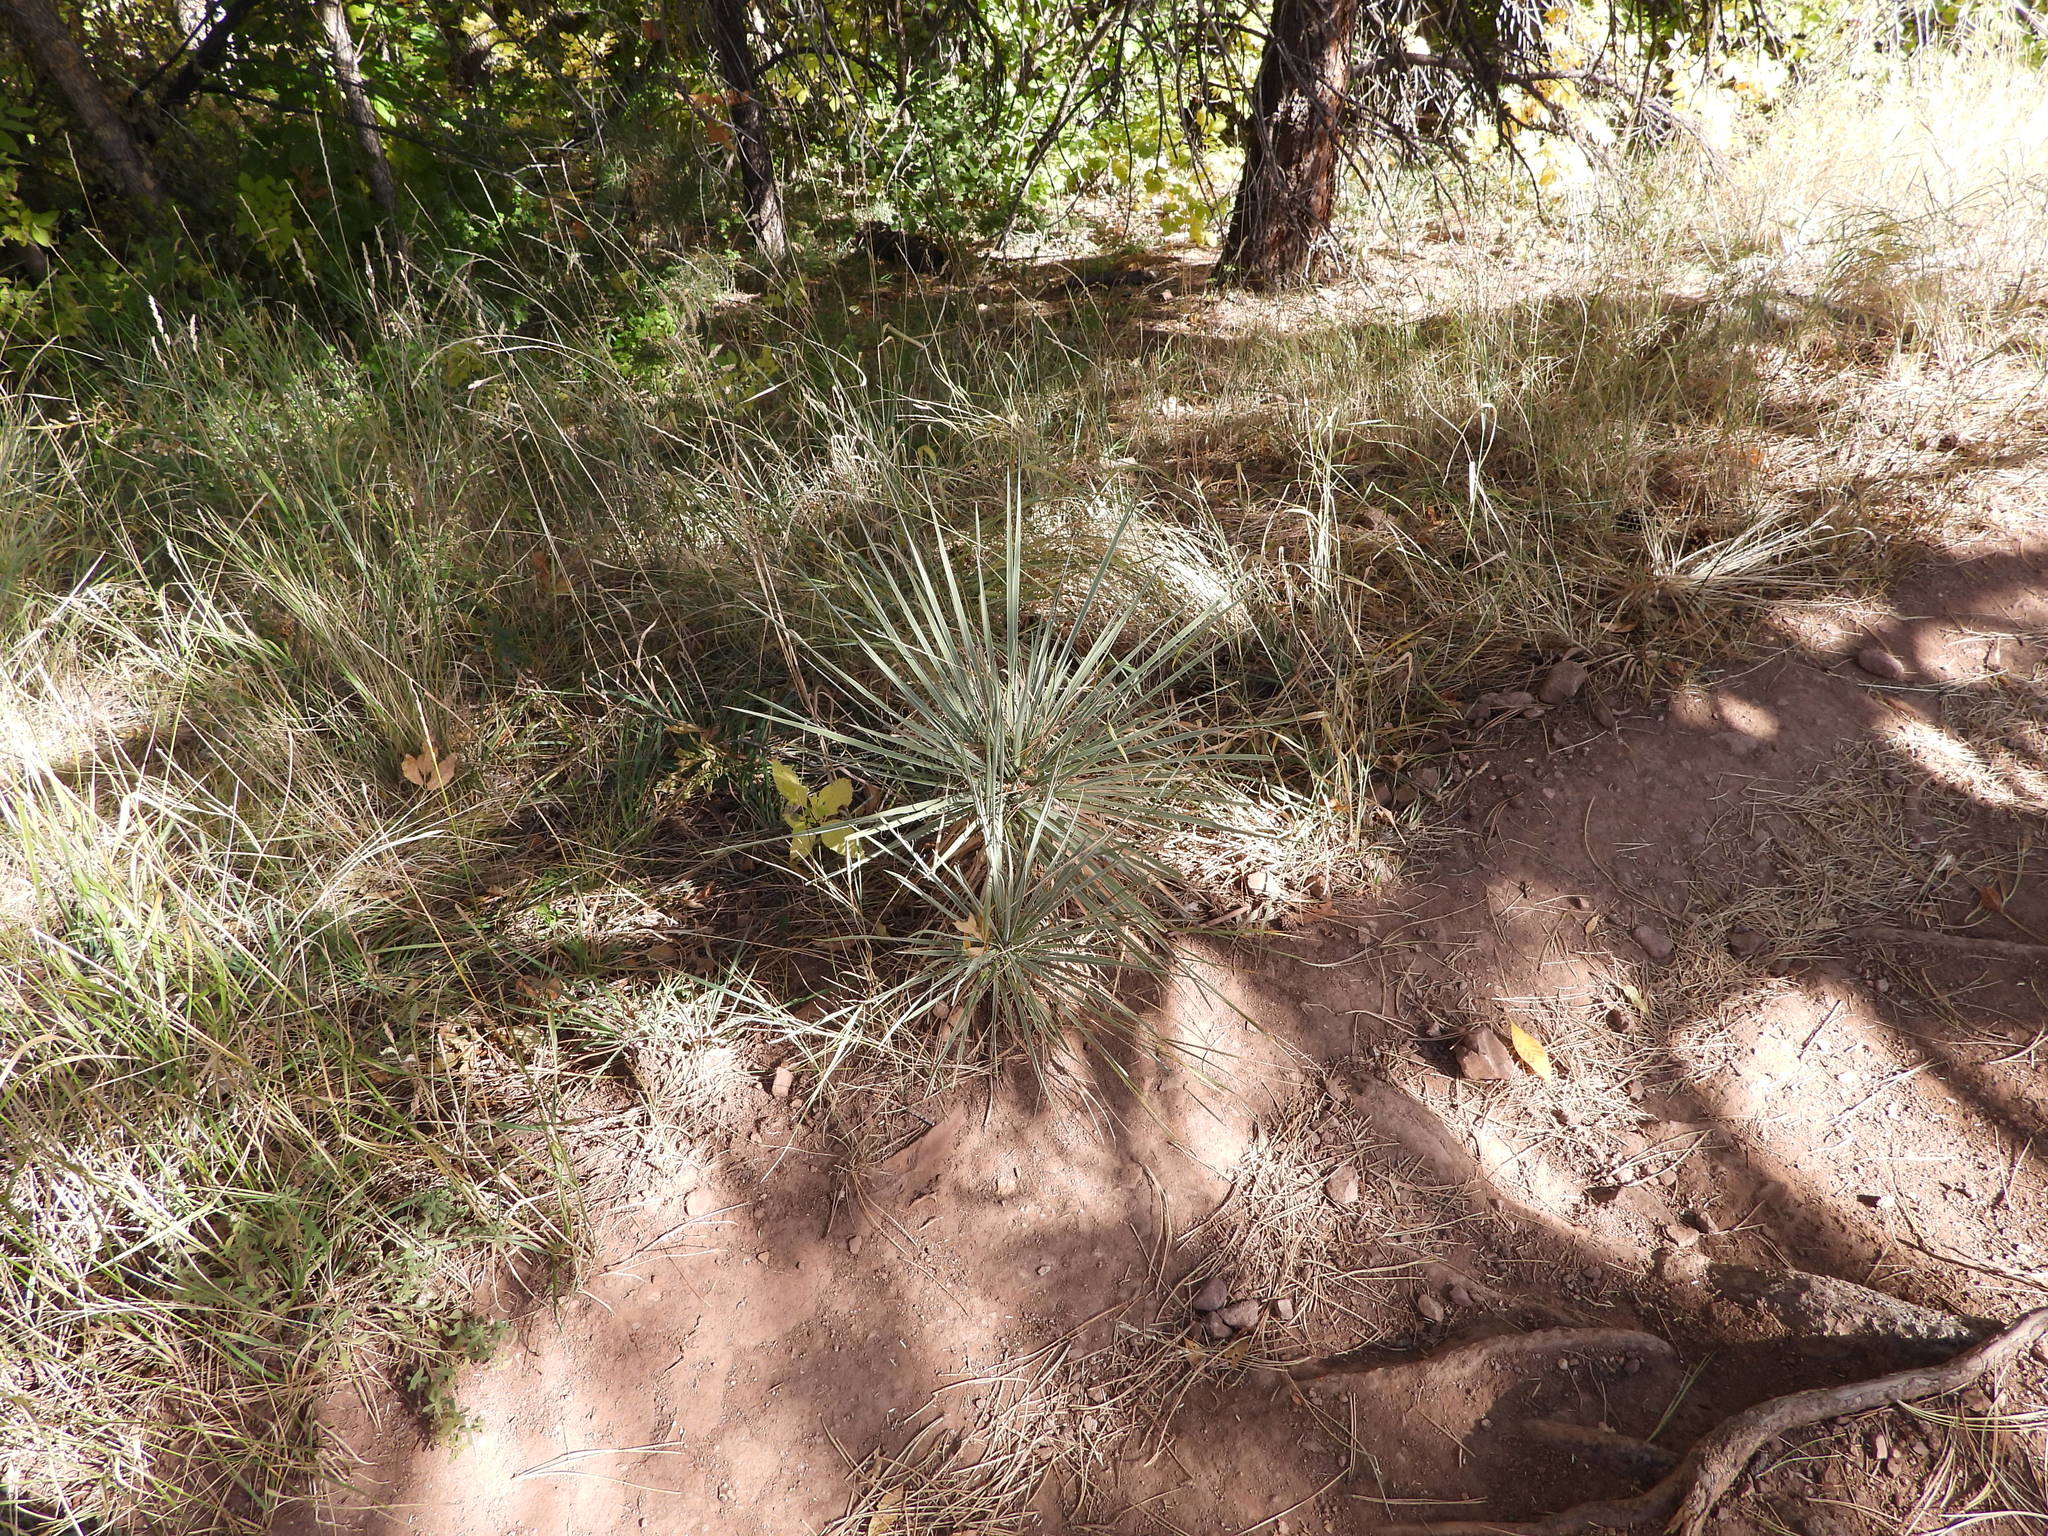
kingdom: Plantae
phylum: Tracheophyta
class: Liliopsida
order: Asparagales
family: Asparagaceae
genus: Yucca
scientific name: Yucca glauca
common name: Great plains yucca
